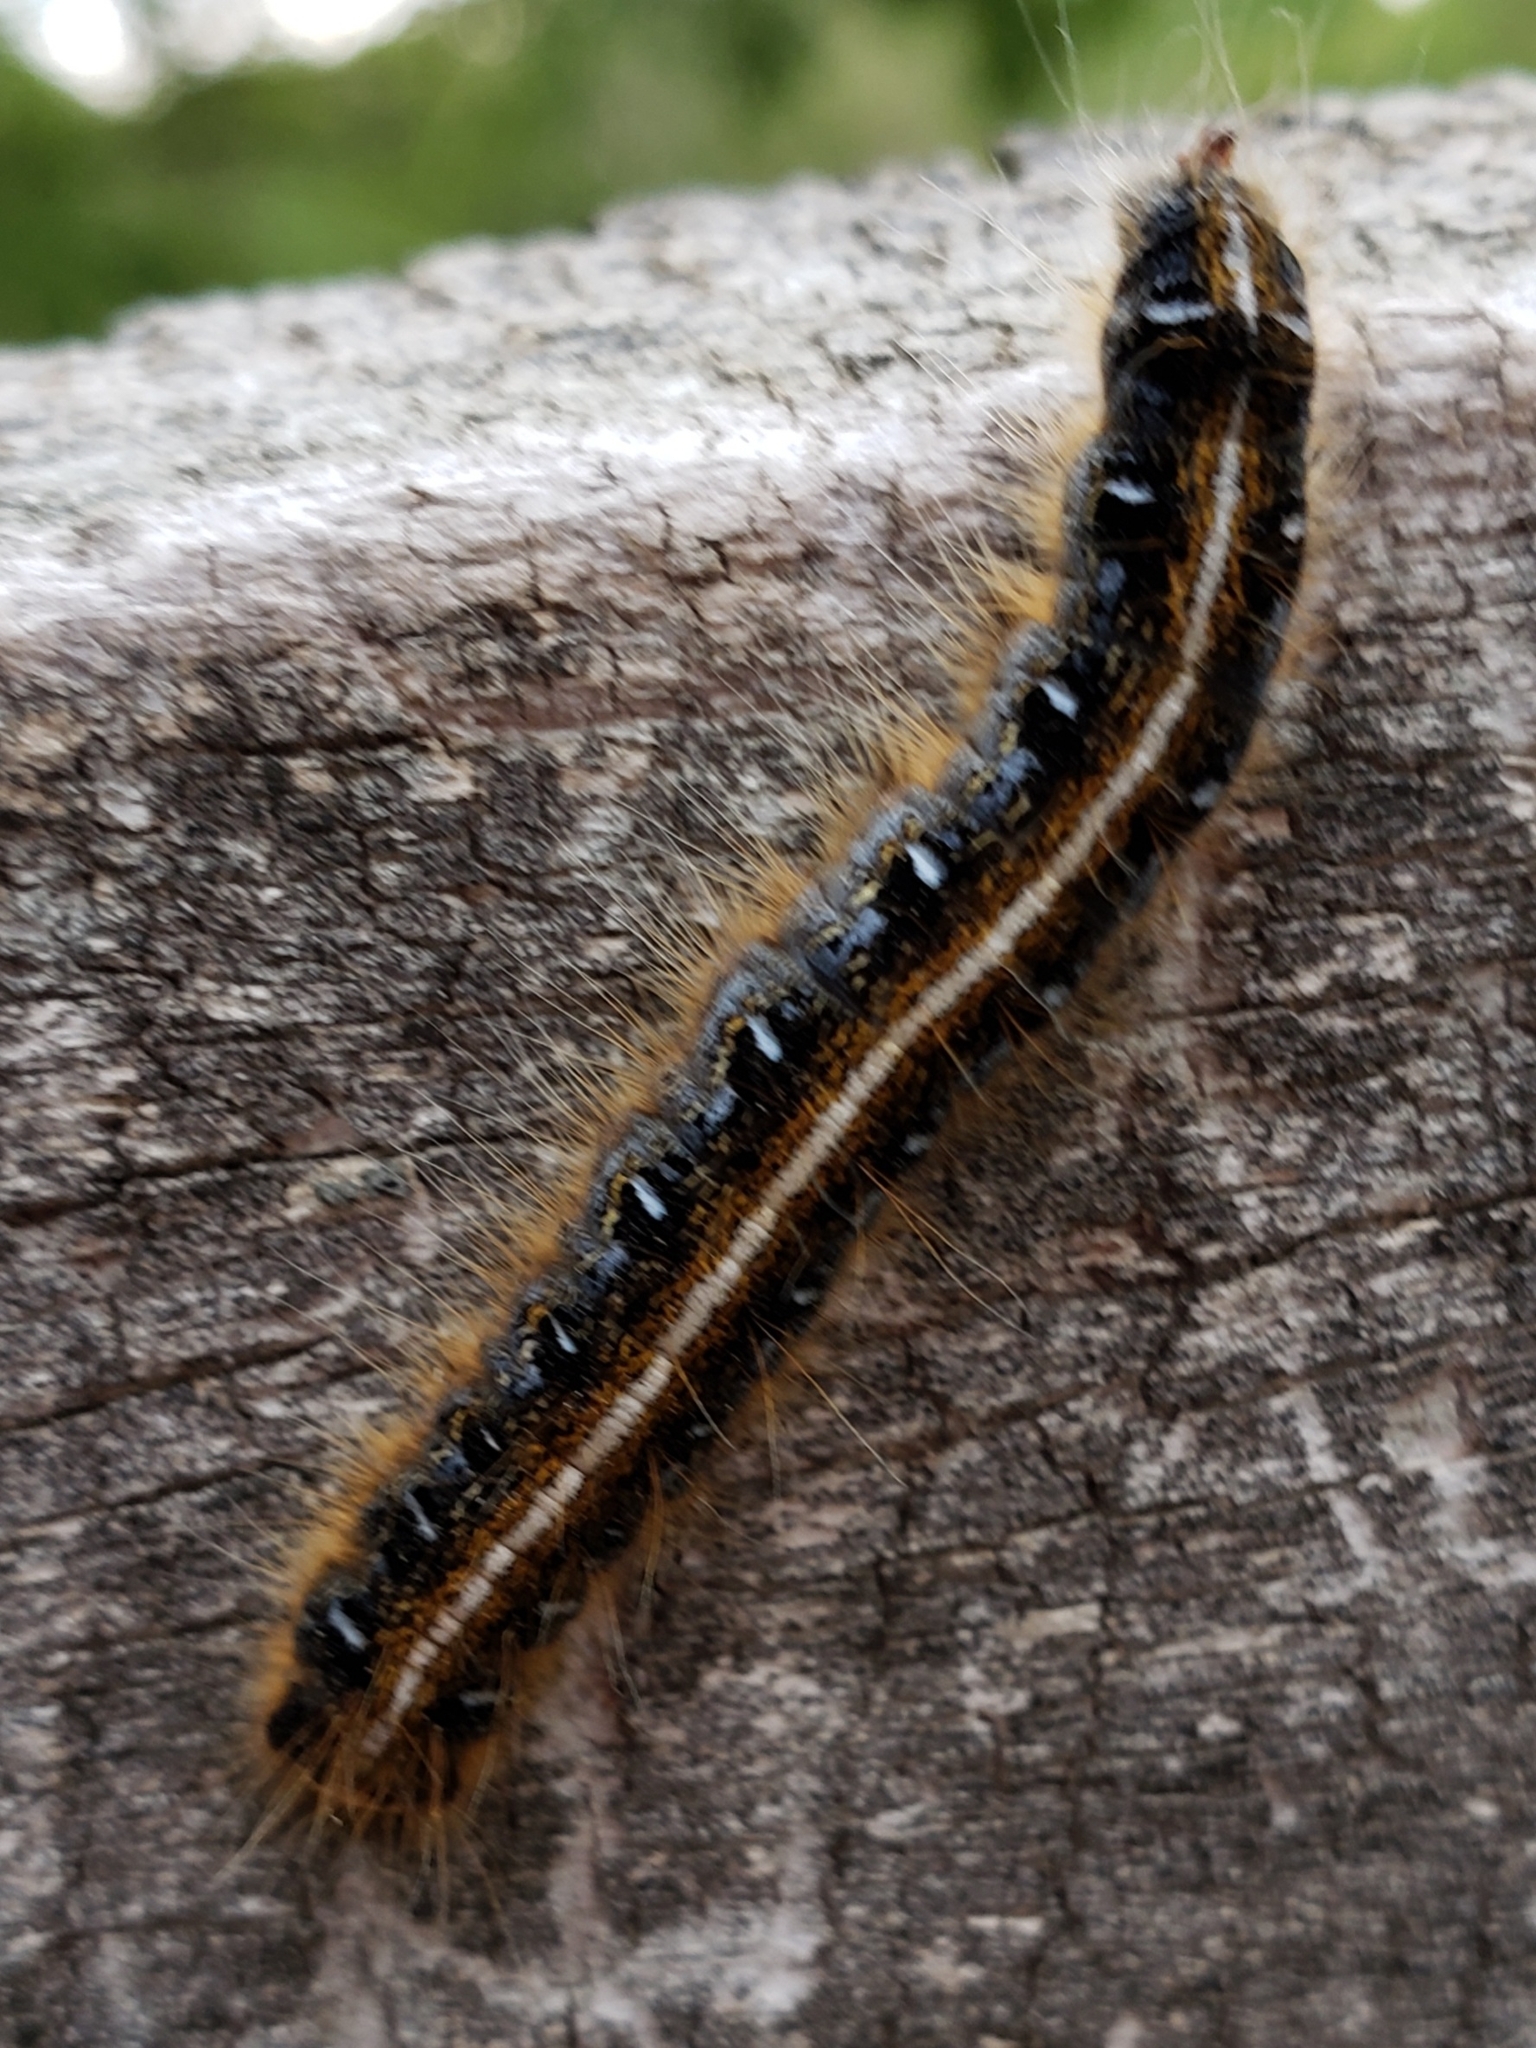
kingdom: Animalia
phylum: Arthropoda
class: Insecta
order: Lepidoptera
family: Lasiocampidae
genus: Malacosoma
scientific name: Malacosoma americana
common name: Eastern tent caterpillar moth
